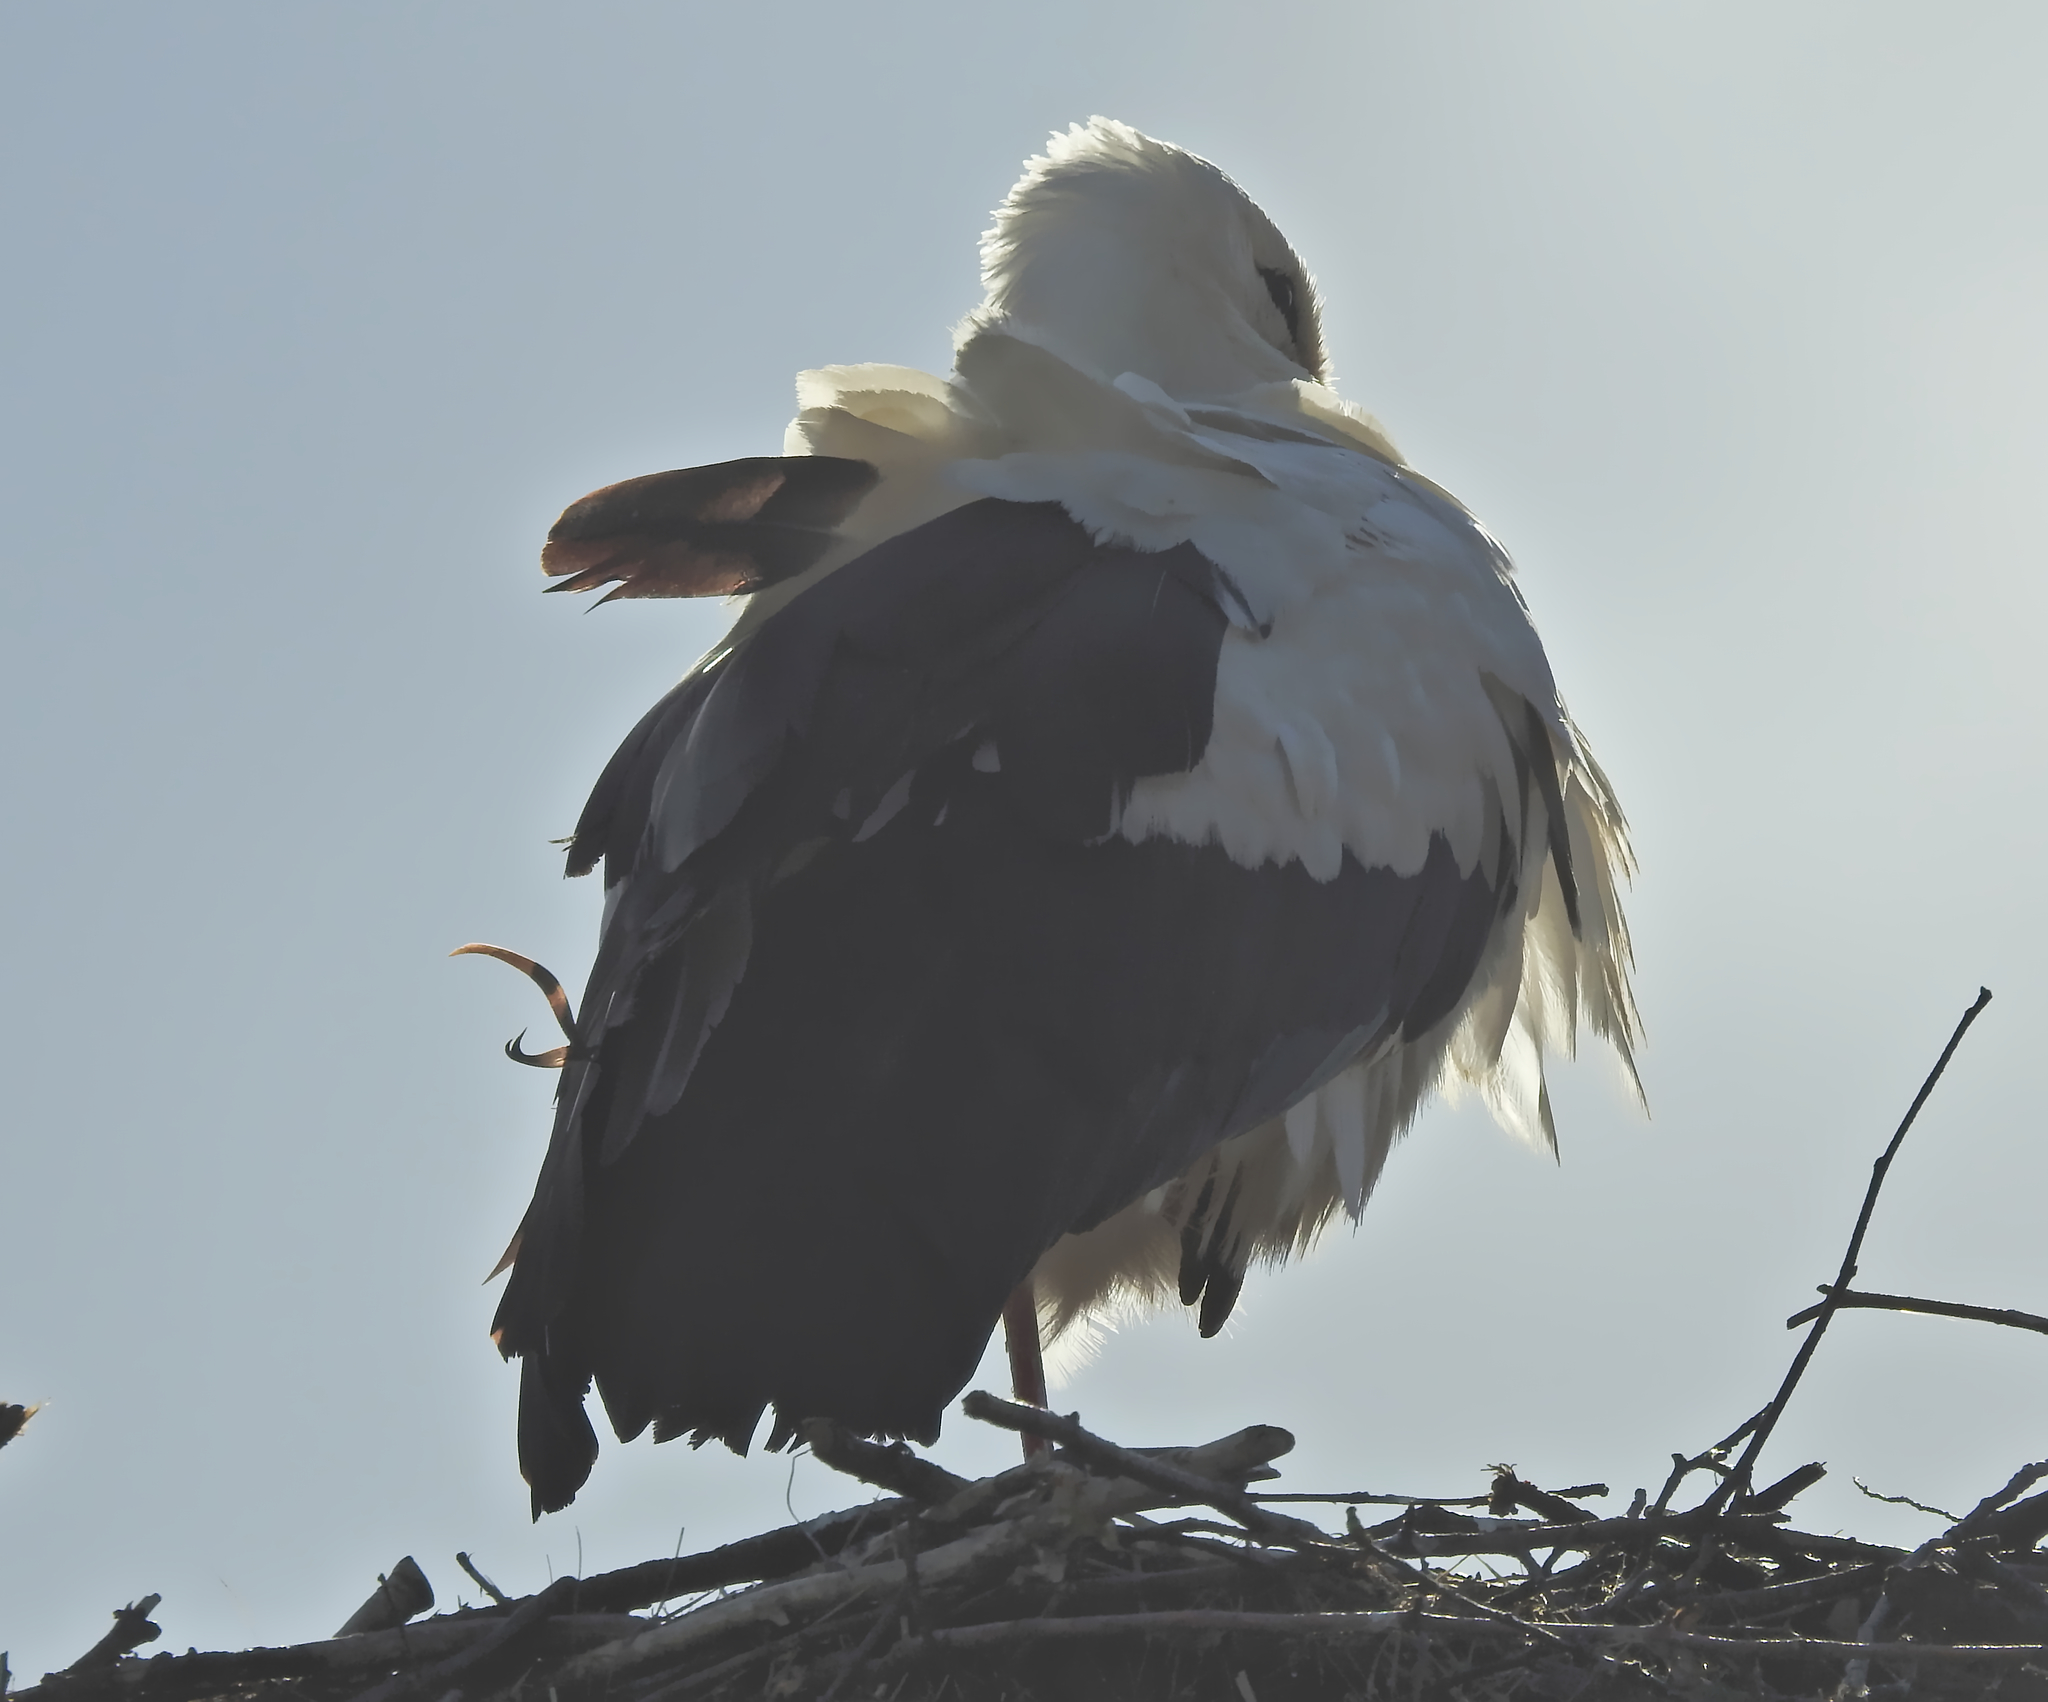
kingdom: Animalia
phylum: Chordata
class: Aves
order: Ciconiiformes
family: Ciconiidae
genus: Ciconia
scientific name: Ciconia ciconia
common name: White stork
